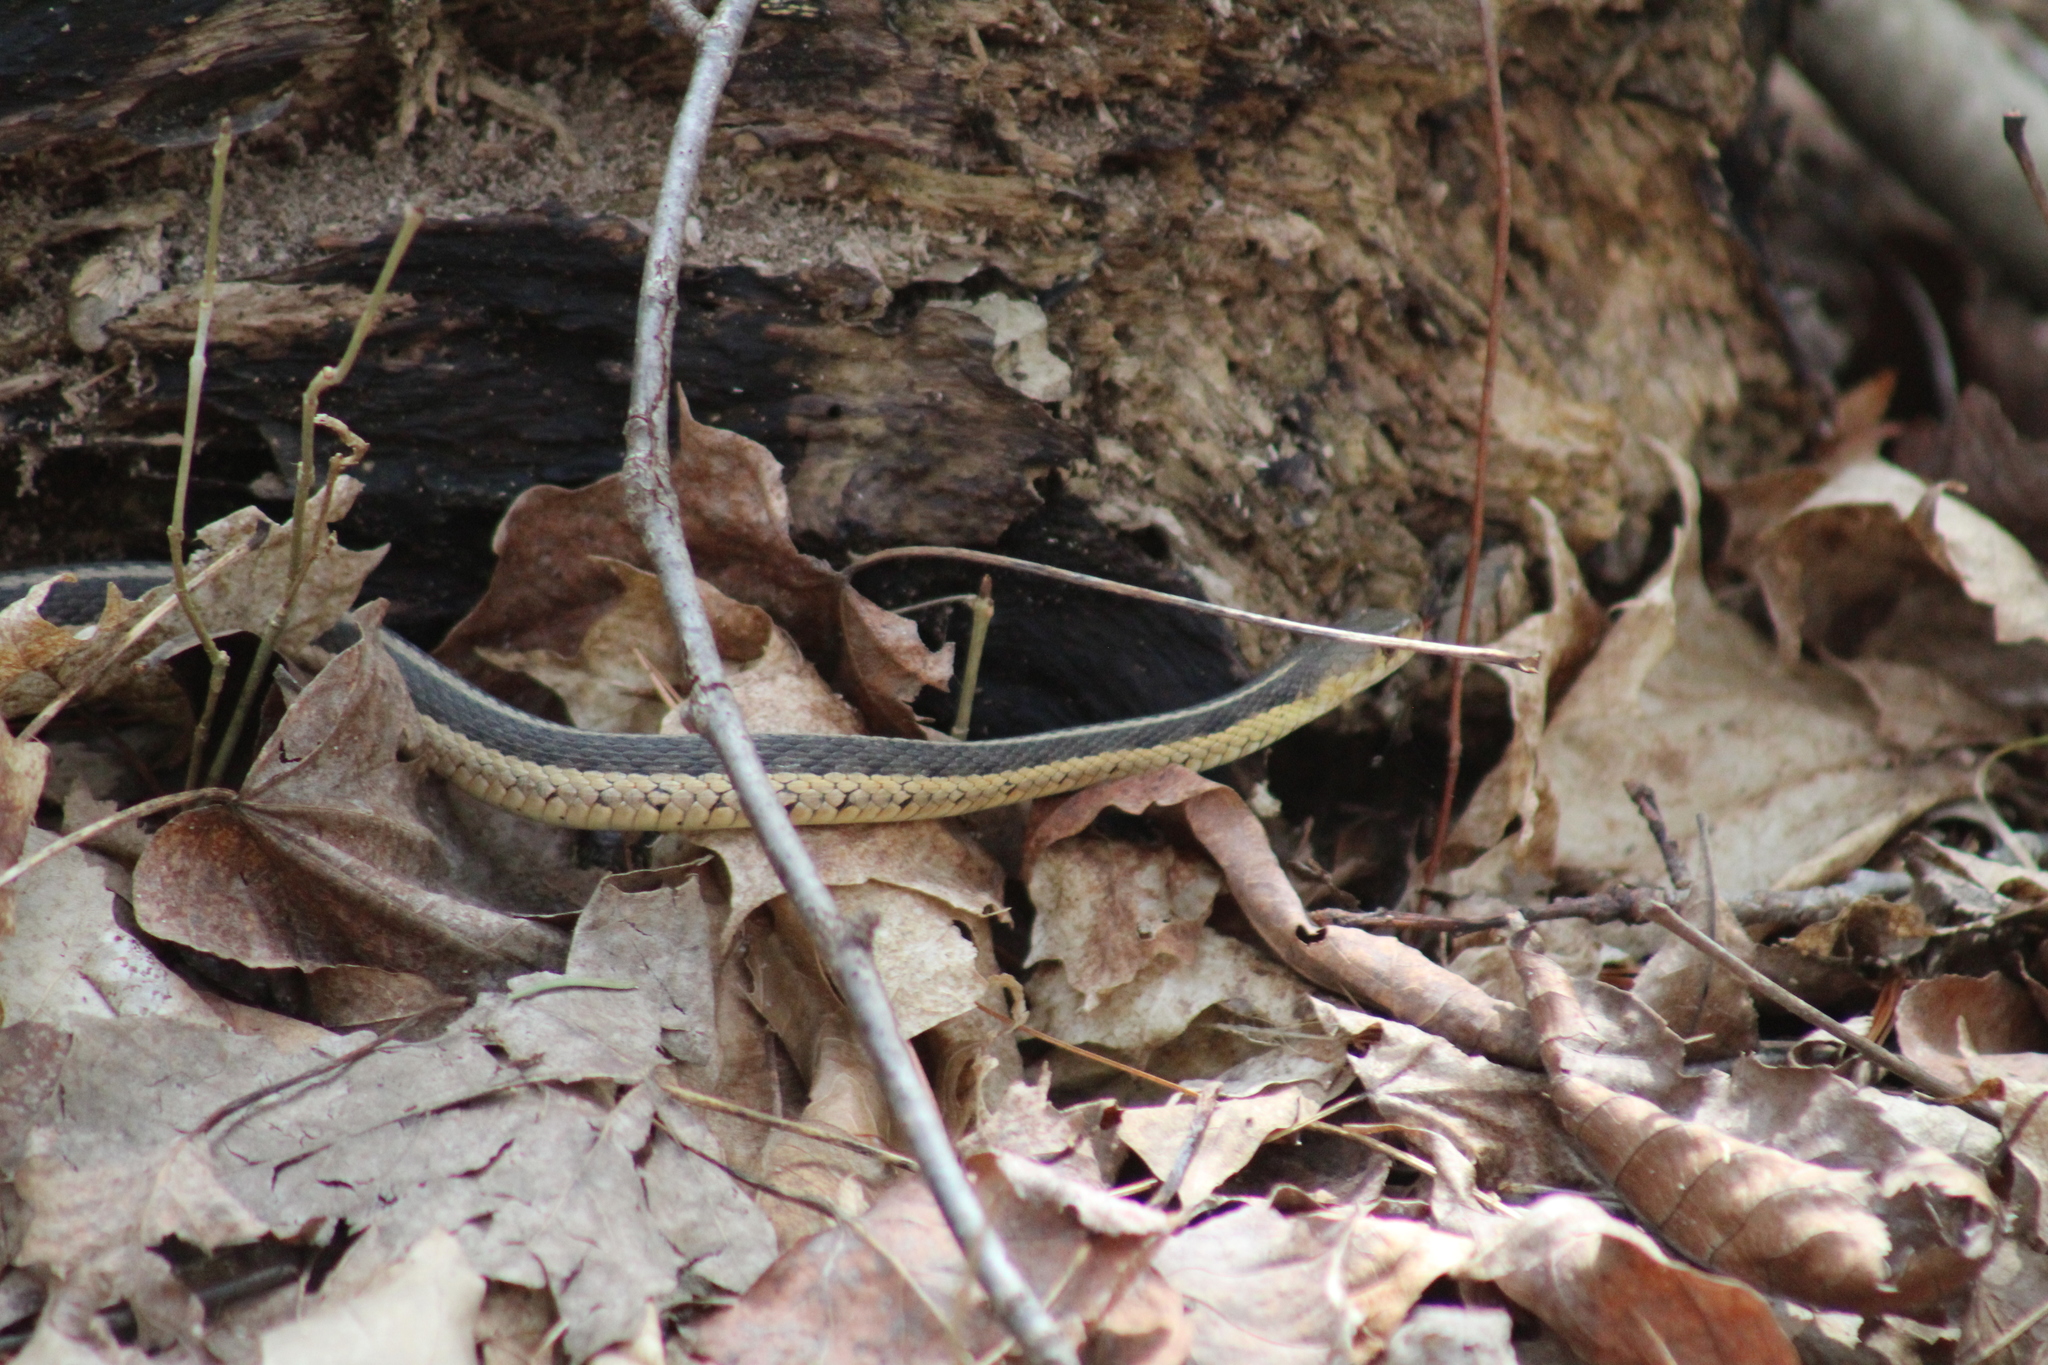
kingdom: Animalia
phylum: Chordata
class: Squamata
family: Colubridae
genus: Thamnophis
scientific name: Thamnophis sirtalis
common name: Common garter snake
